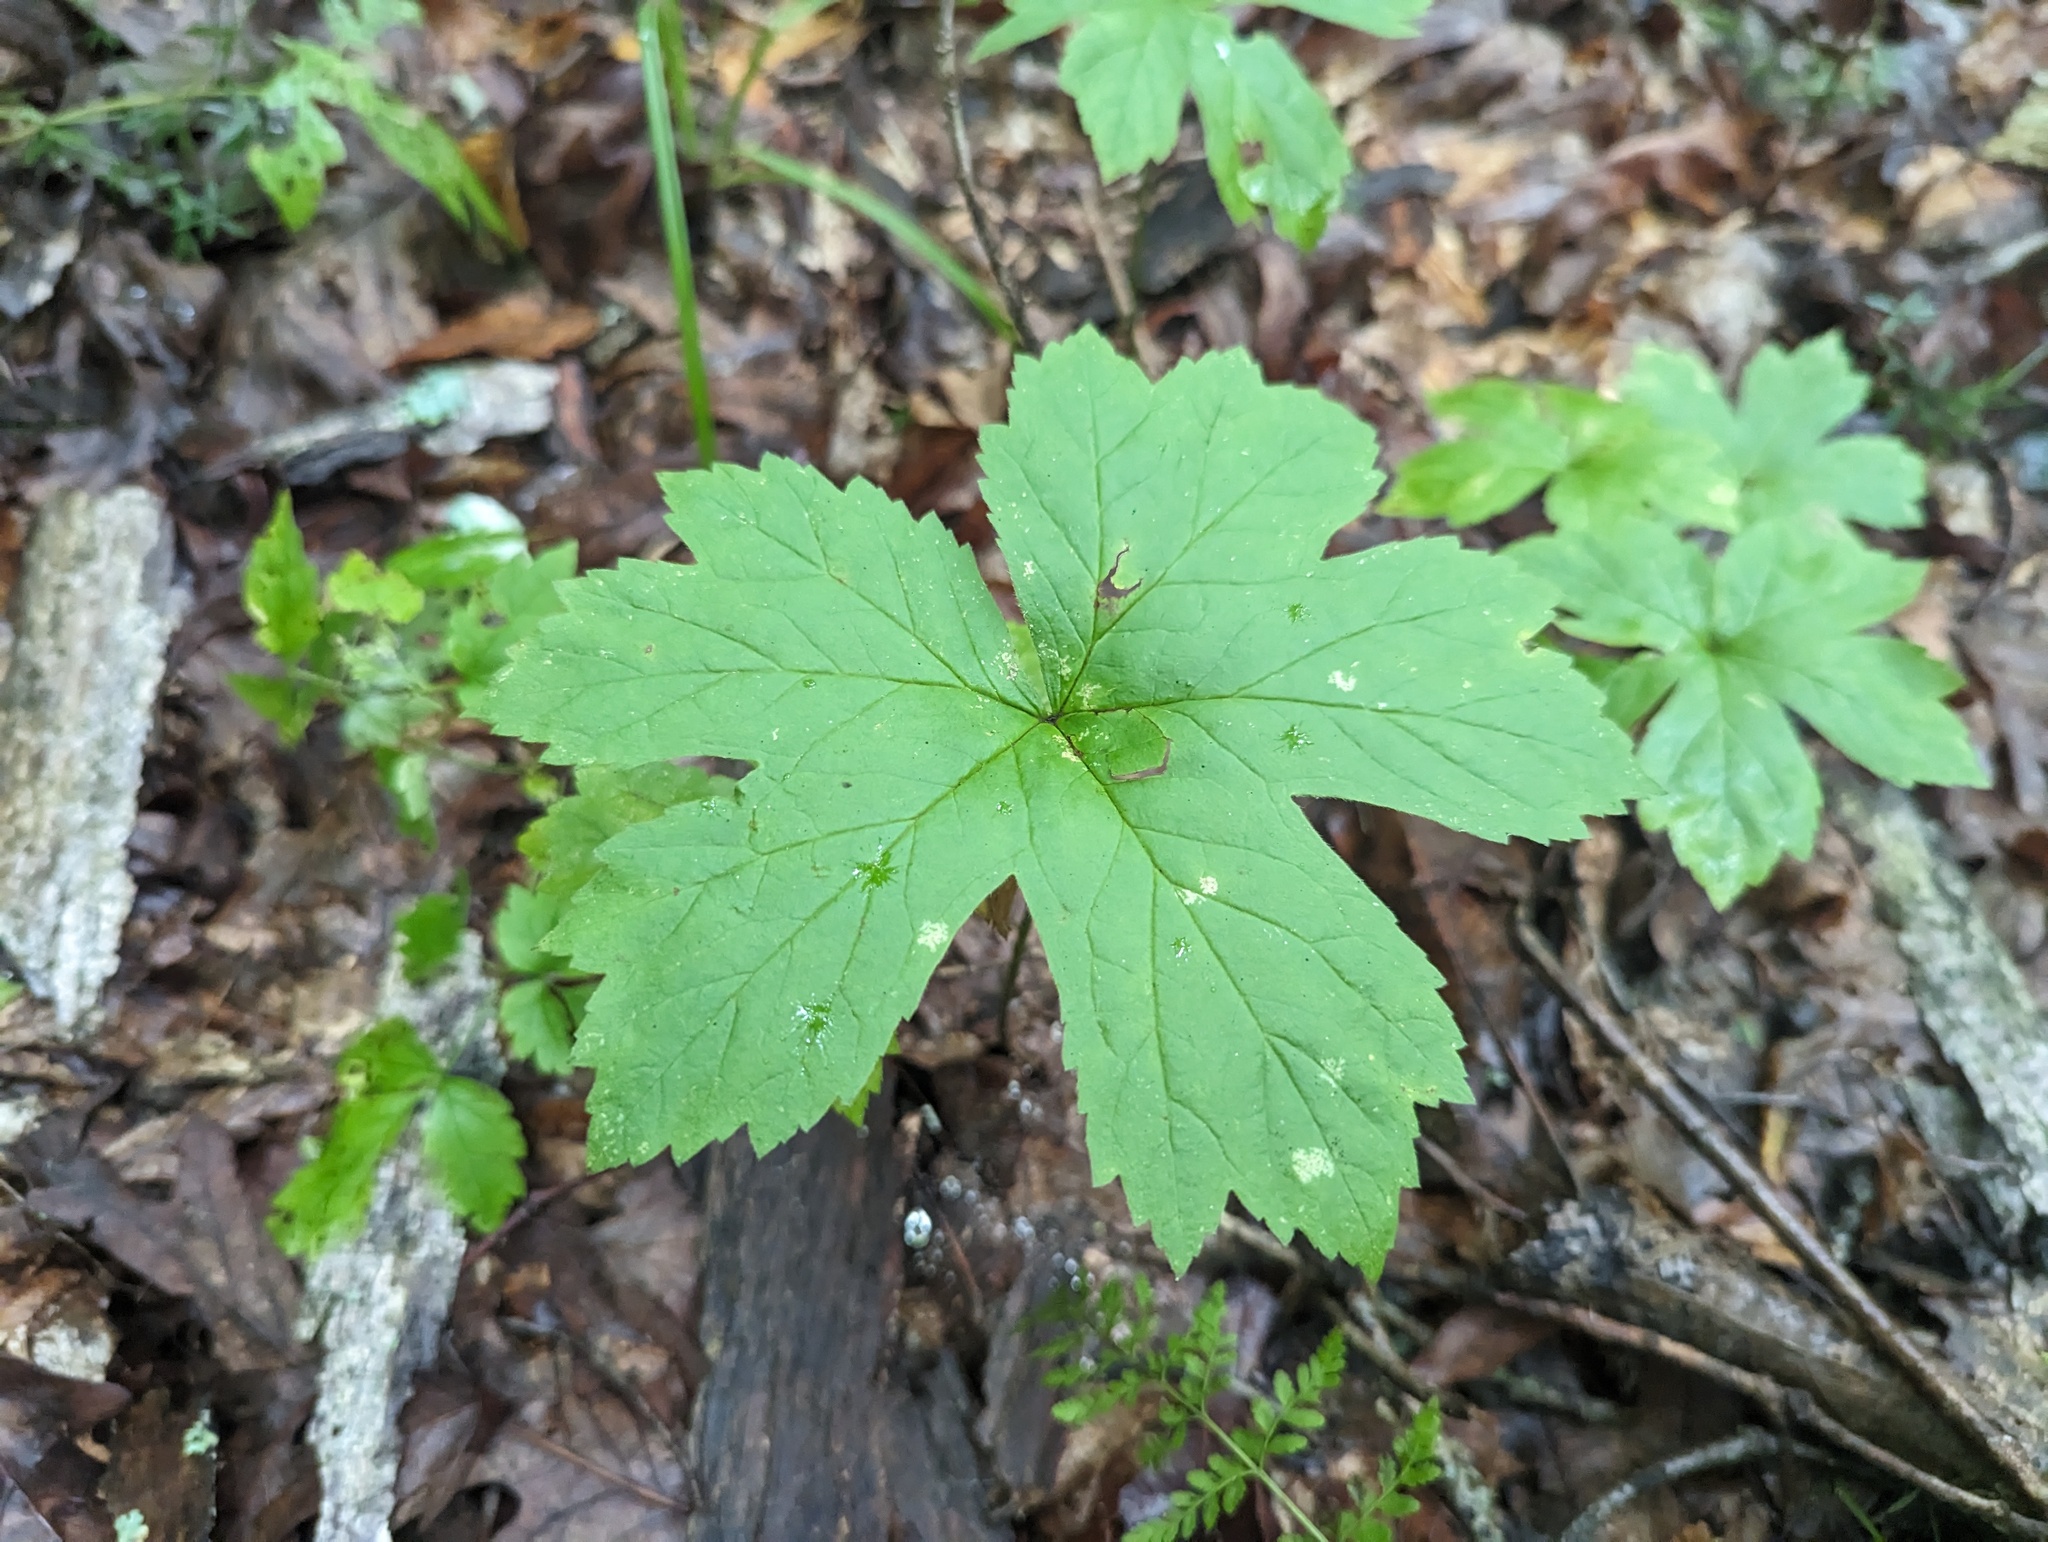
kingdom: Plantae
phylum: Tracheophyta
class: Magnoliopsida
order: Ranunculales
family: Ranunculaceae
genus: Hydrastis
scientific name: Hydrastis canadensis
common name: Goldenseal
